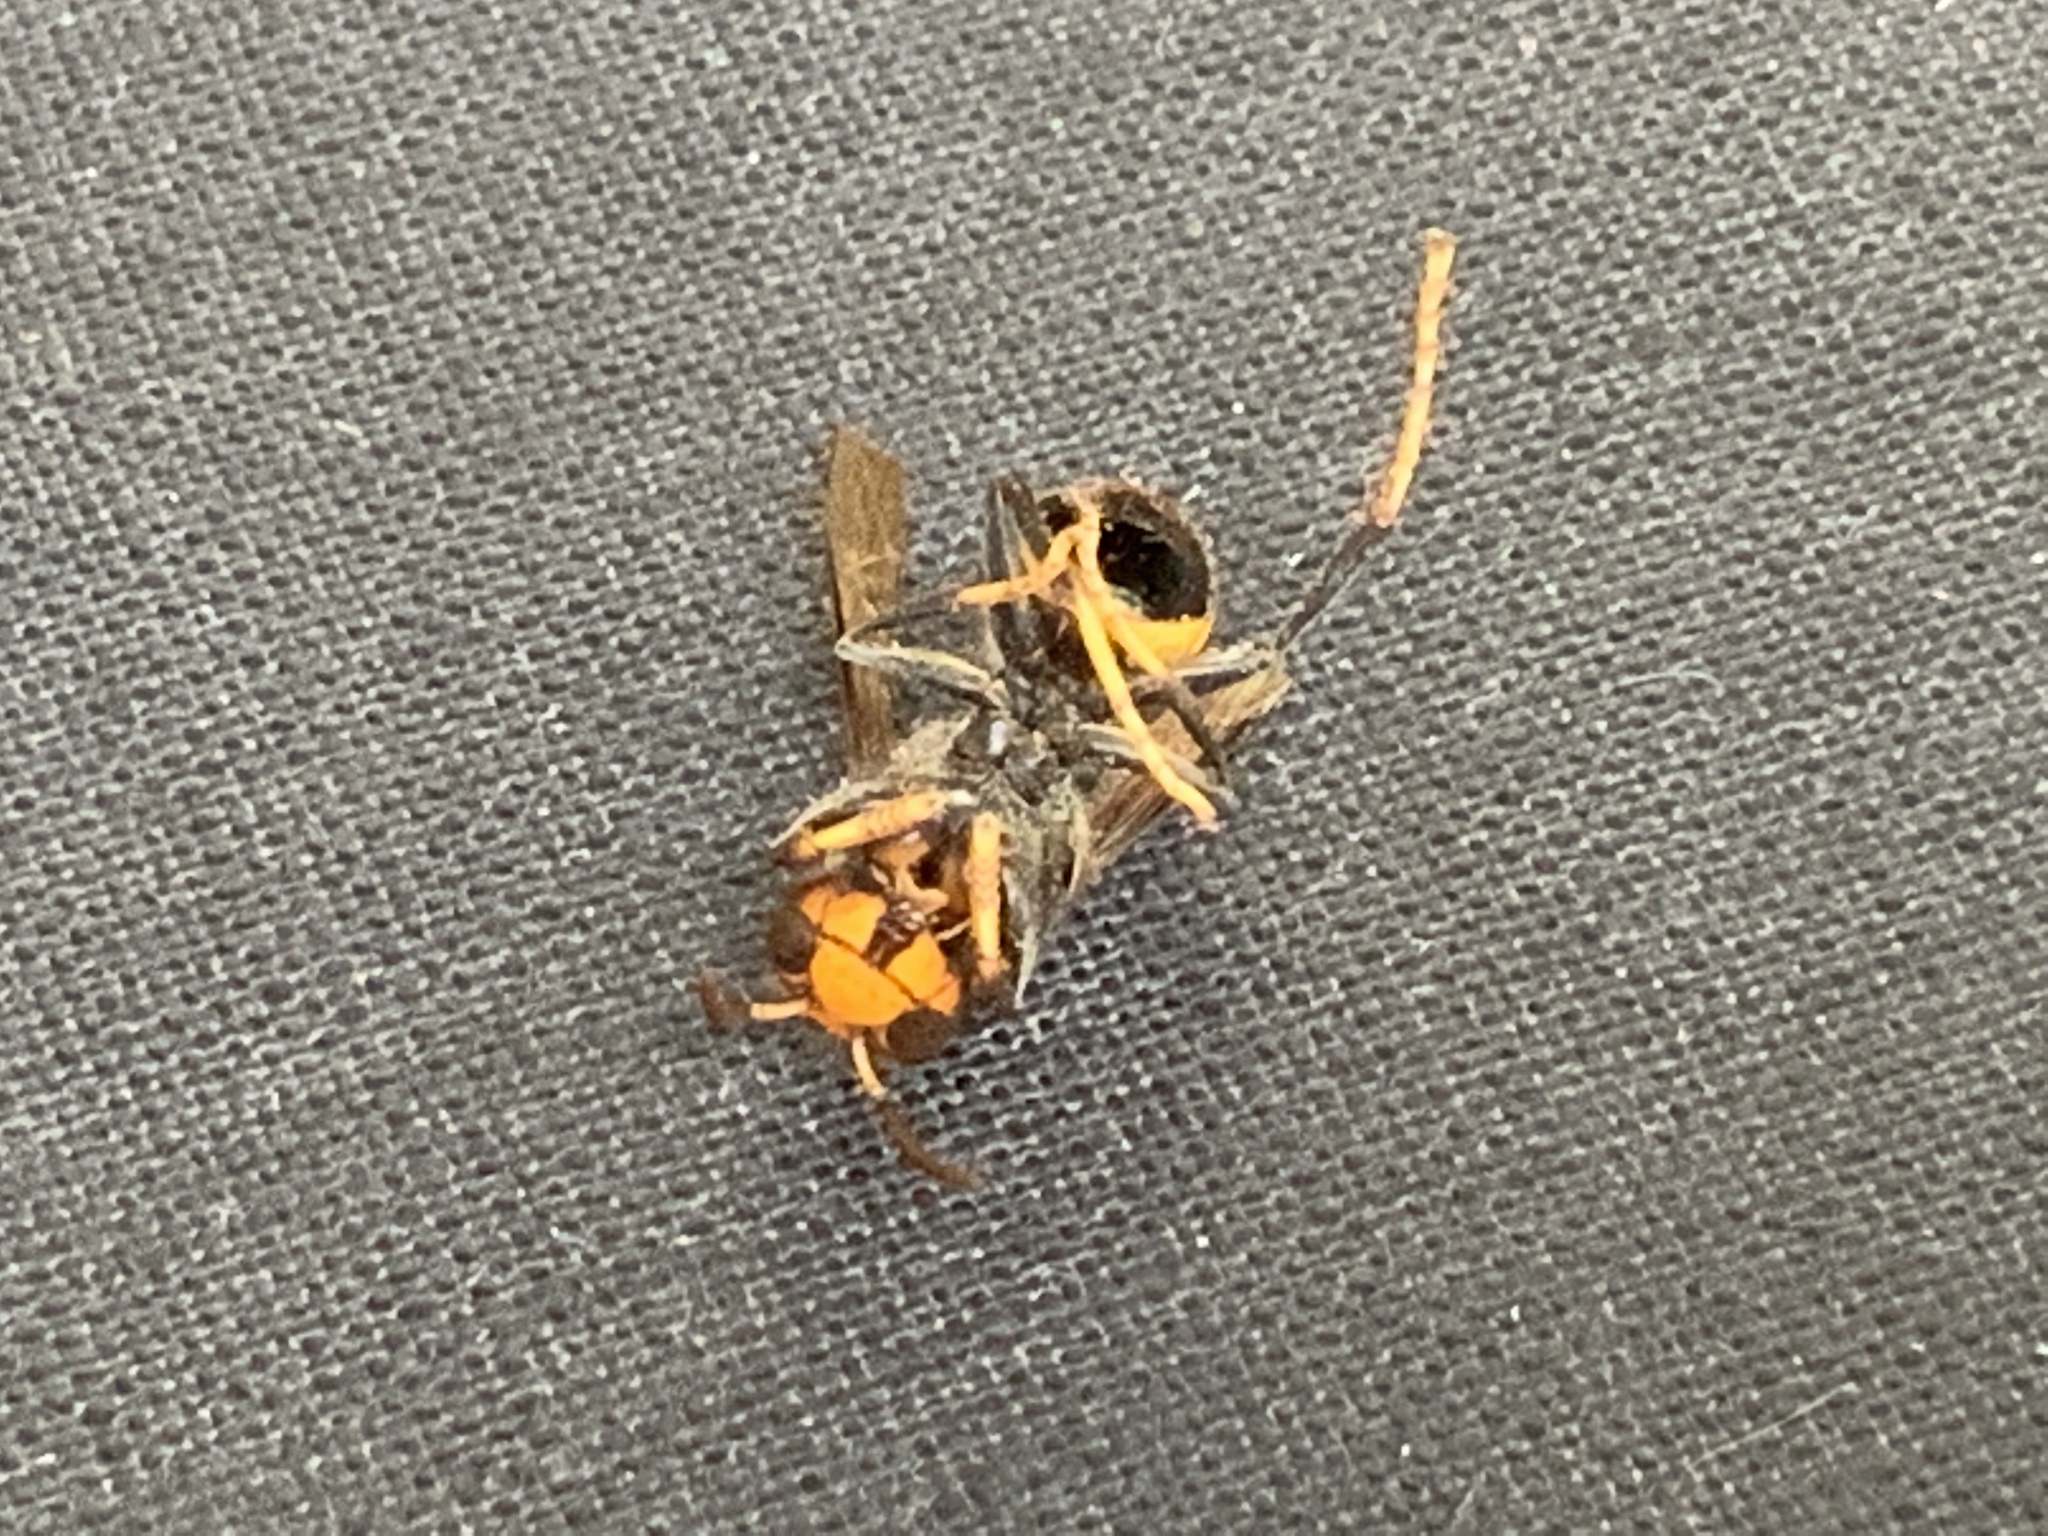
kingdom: Animalia
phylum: Arthropoda
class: Insecta
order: Hymenoptera
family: Vespidae
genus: Vespa
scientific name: Vespa velutina
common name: Asian hornet
